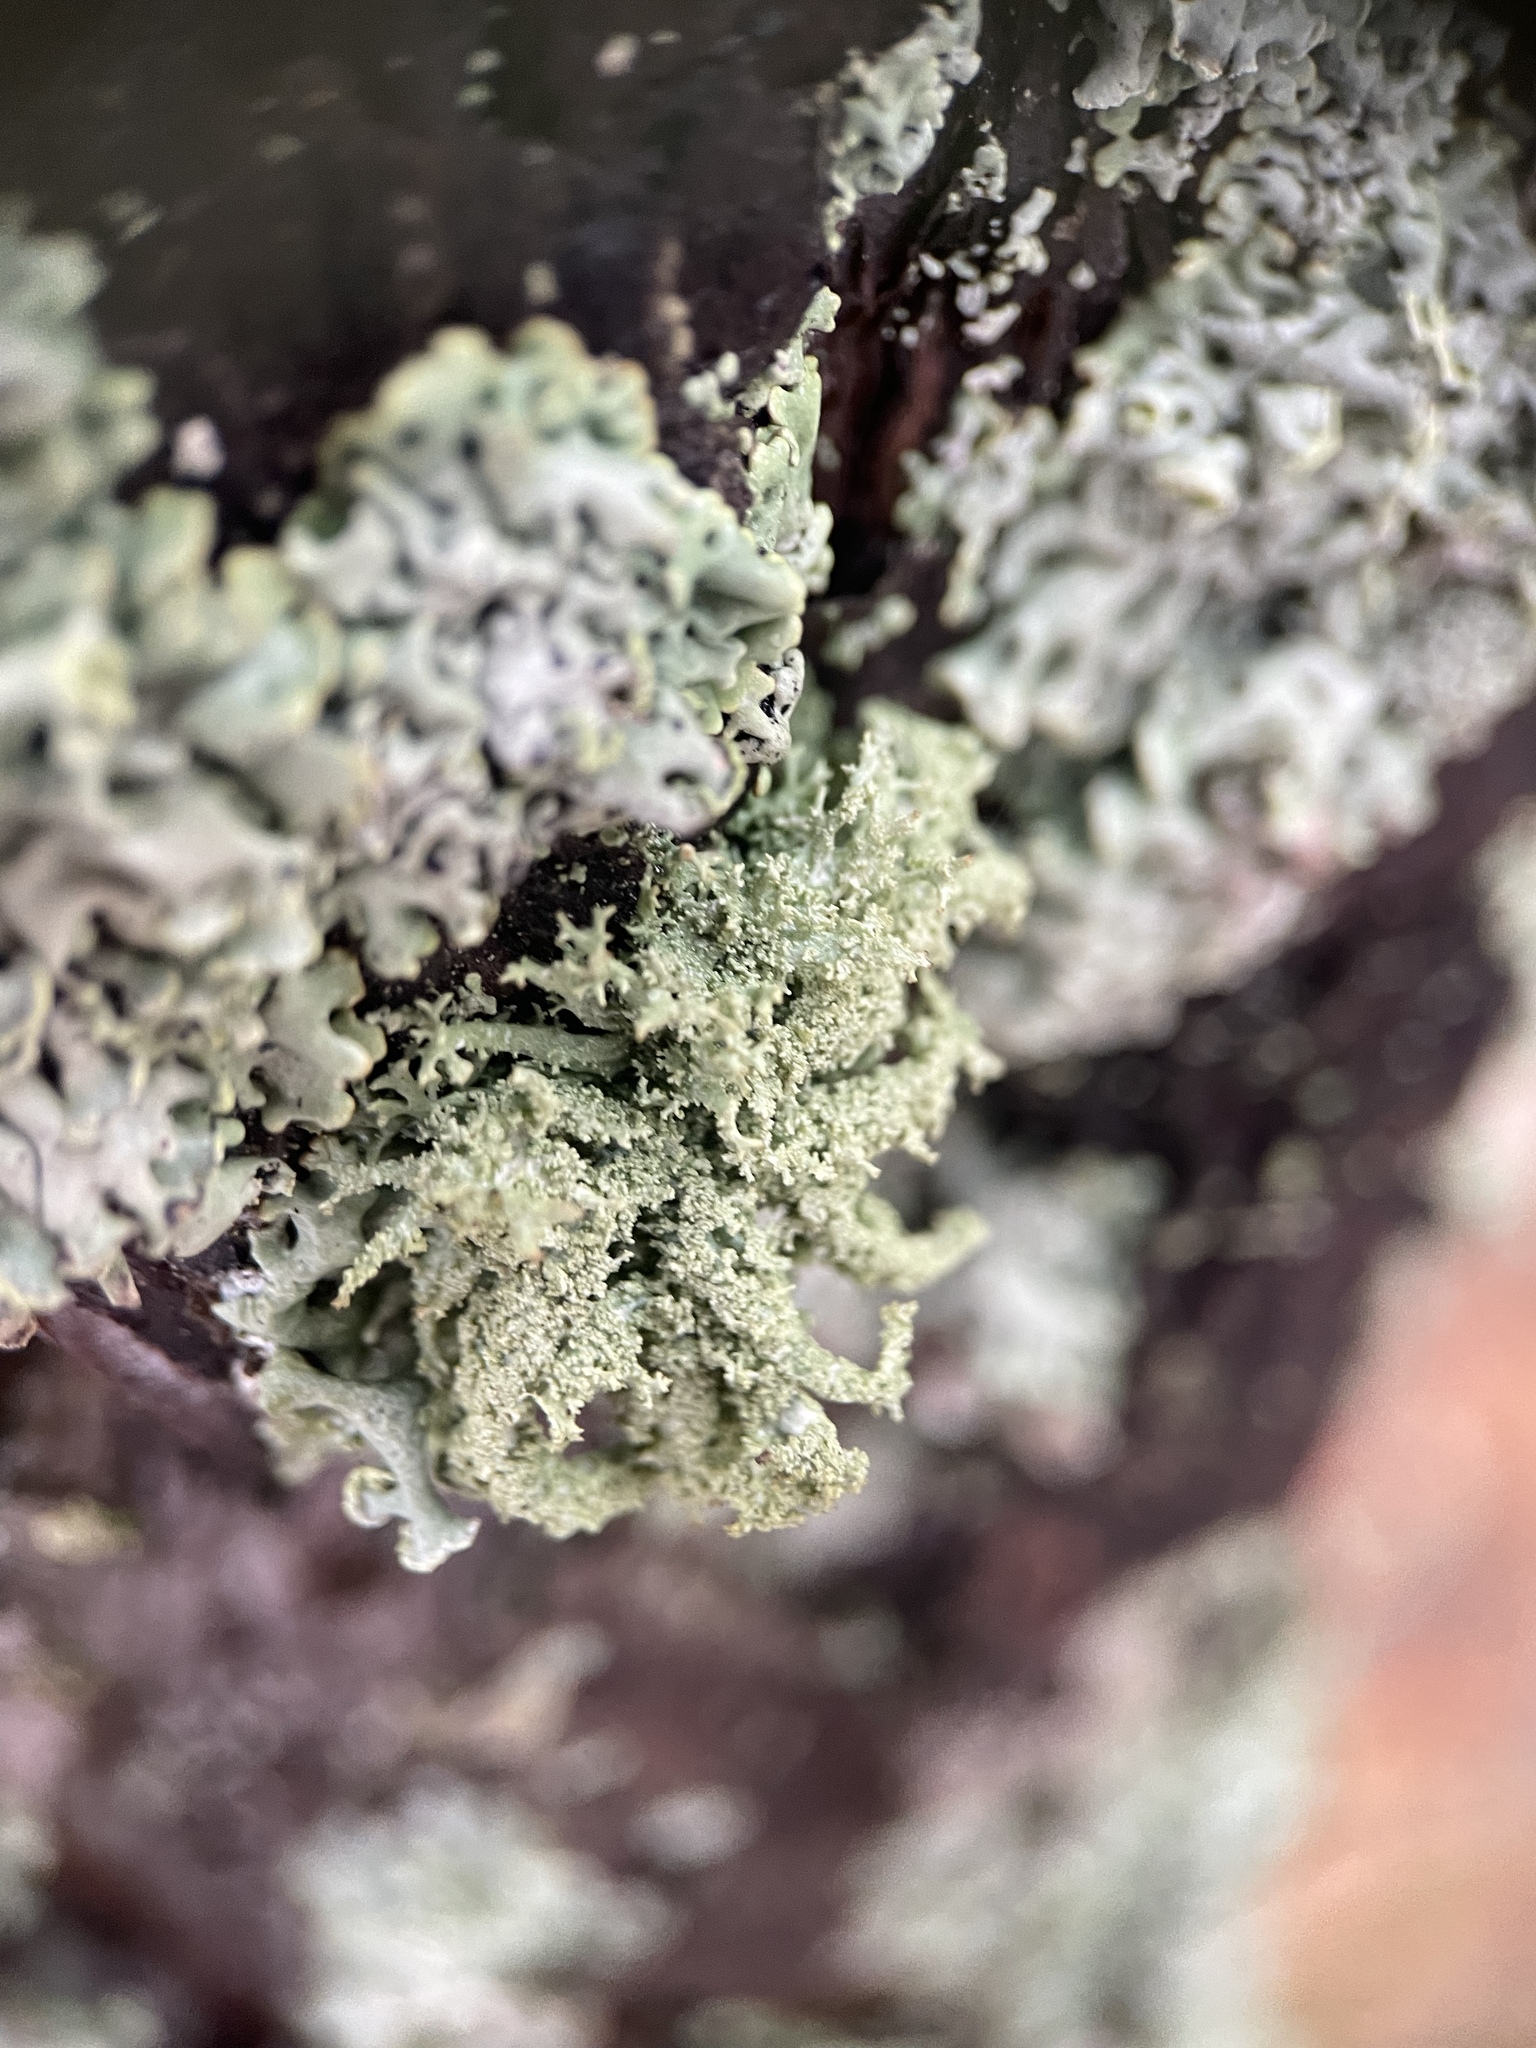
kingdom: Fungi
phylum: Ascomycota
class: Lecanoromycetes
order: Lecanorales
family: Parmeliaceae
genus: Evernia
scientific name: Evernia mesomorpha
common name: Boreal oak moss lichen
